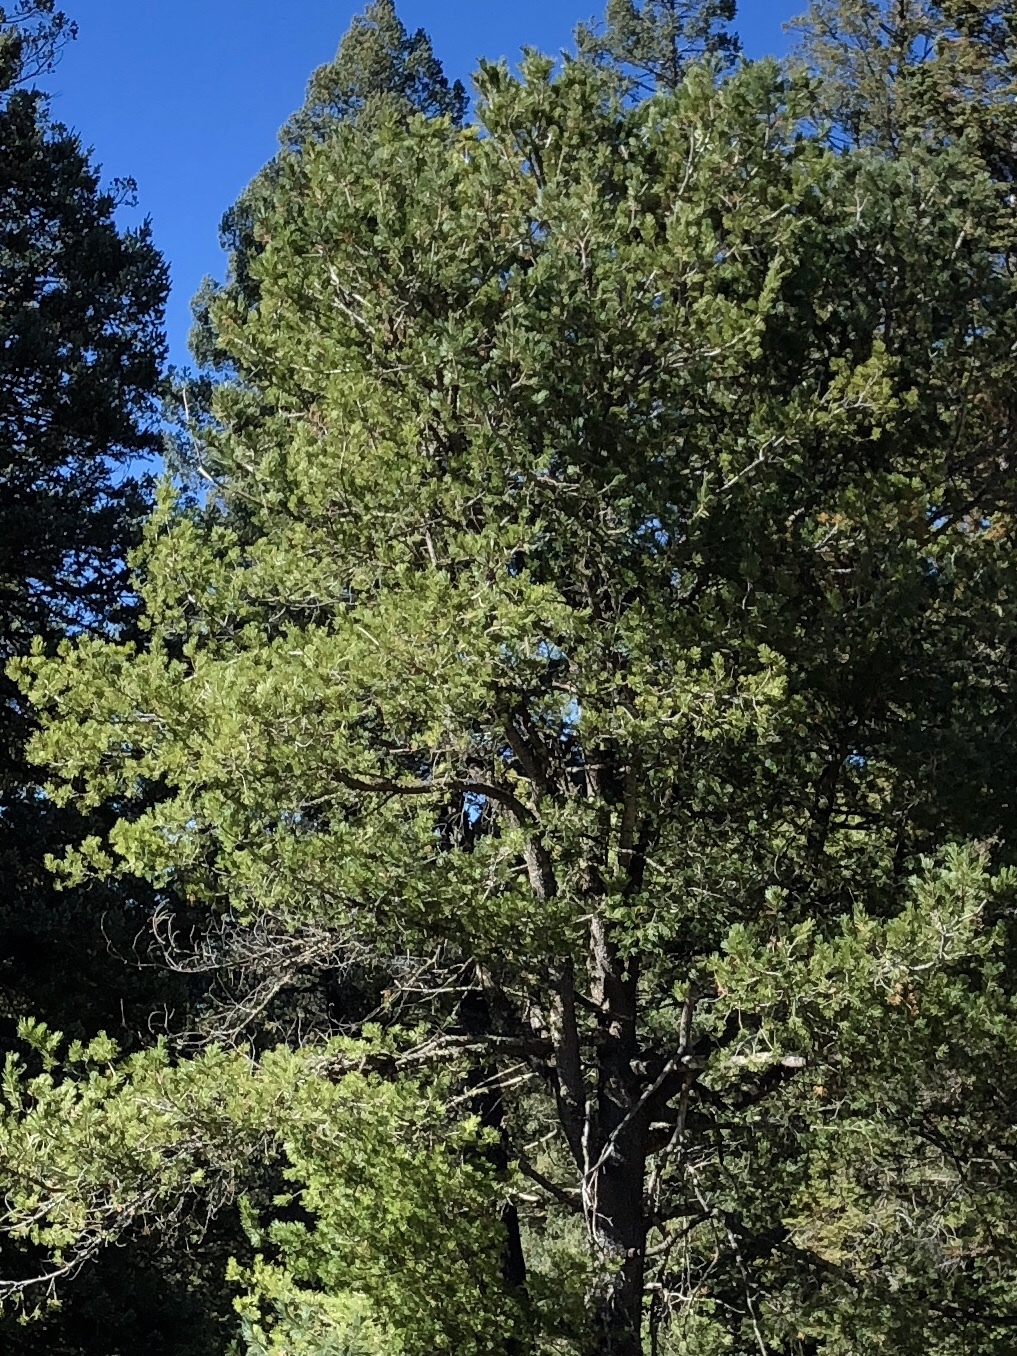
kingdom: Plantae
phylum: Tracheophyta
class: Pinopsida
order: Pinales
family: Pinaceae
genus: Pinus
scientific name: Pinus strobiformis
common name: Southwestern white pine
